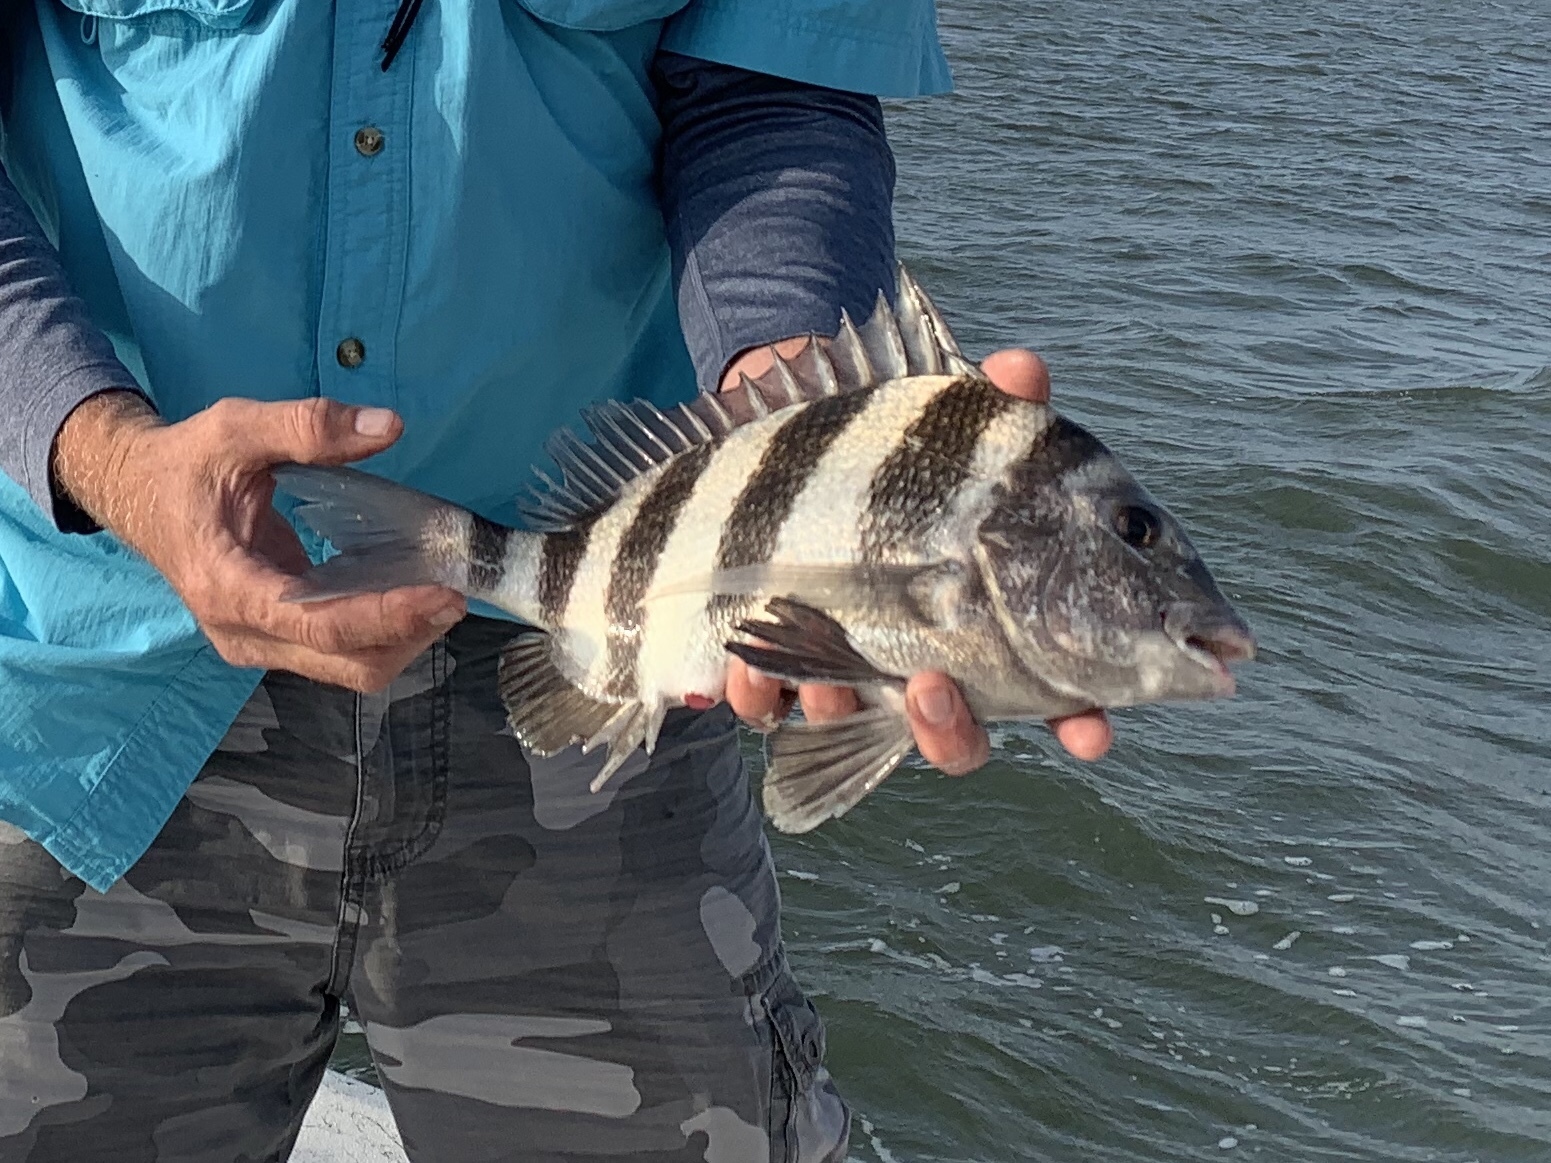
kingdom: Animalia
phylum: Chordata
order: Perciformes
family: Sparidae
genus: Archosargus
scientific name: Archosargus probatocephalus
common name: Sheepshead
